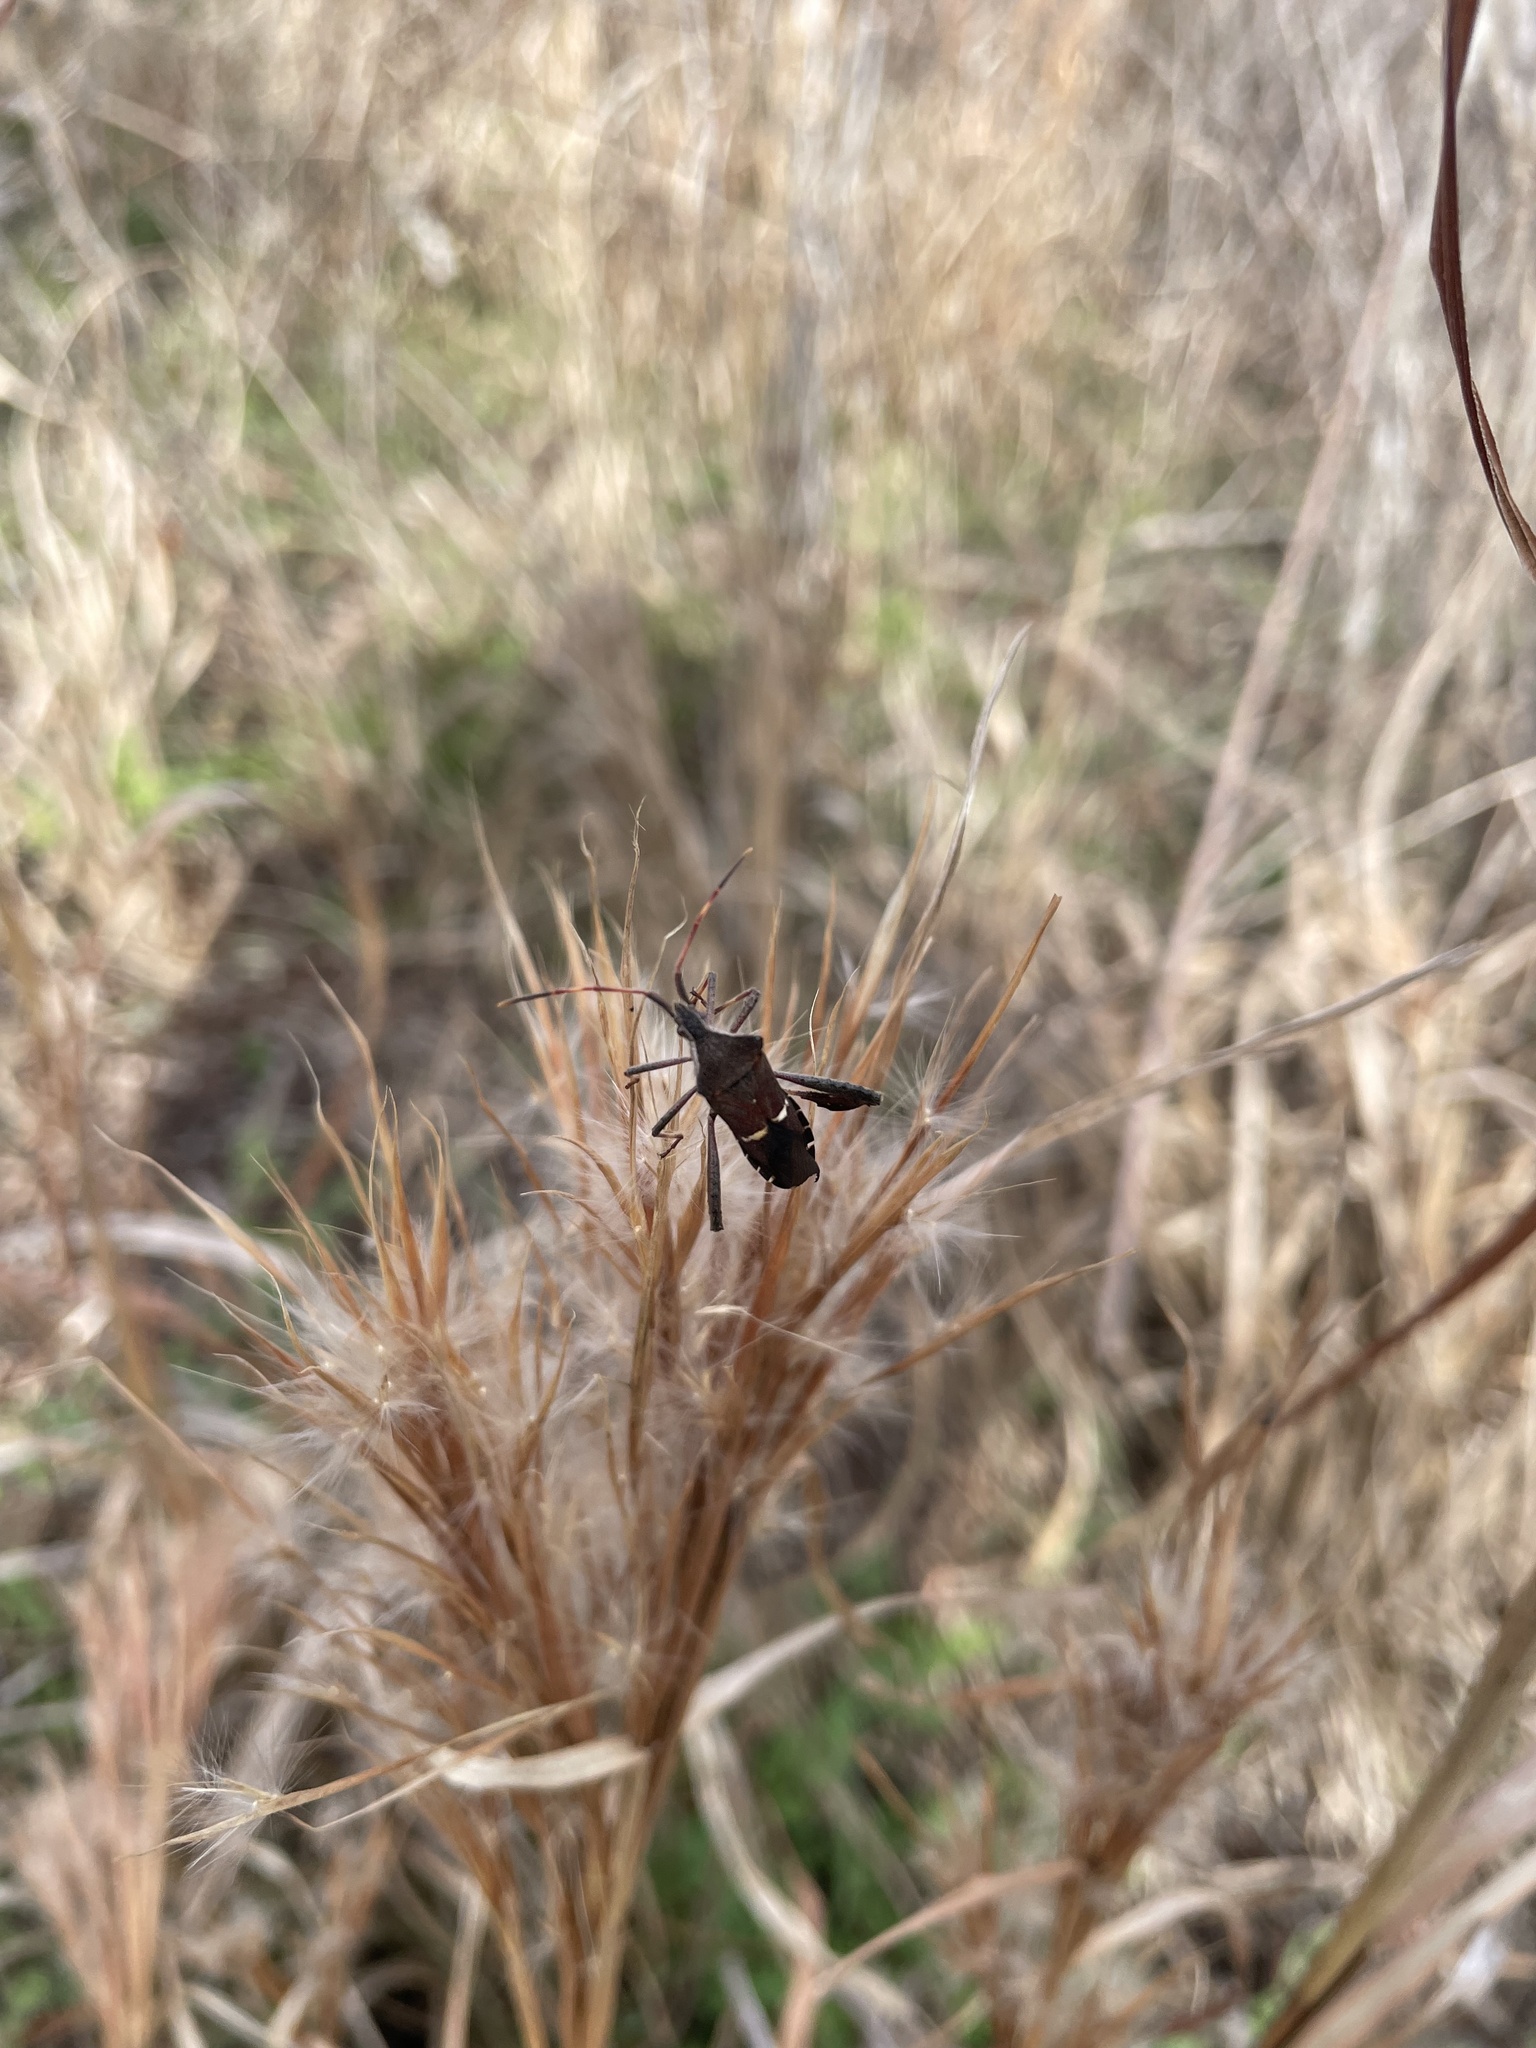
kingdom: Animalia
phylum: Arthropoda
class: Insecta
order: Hemiptera
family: Coreidae
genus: Leptoglossus
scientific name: Leptoglossus phyllopus
